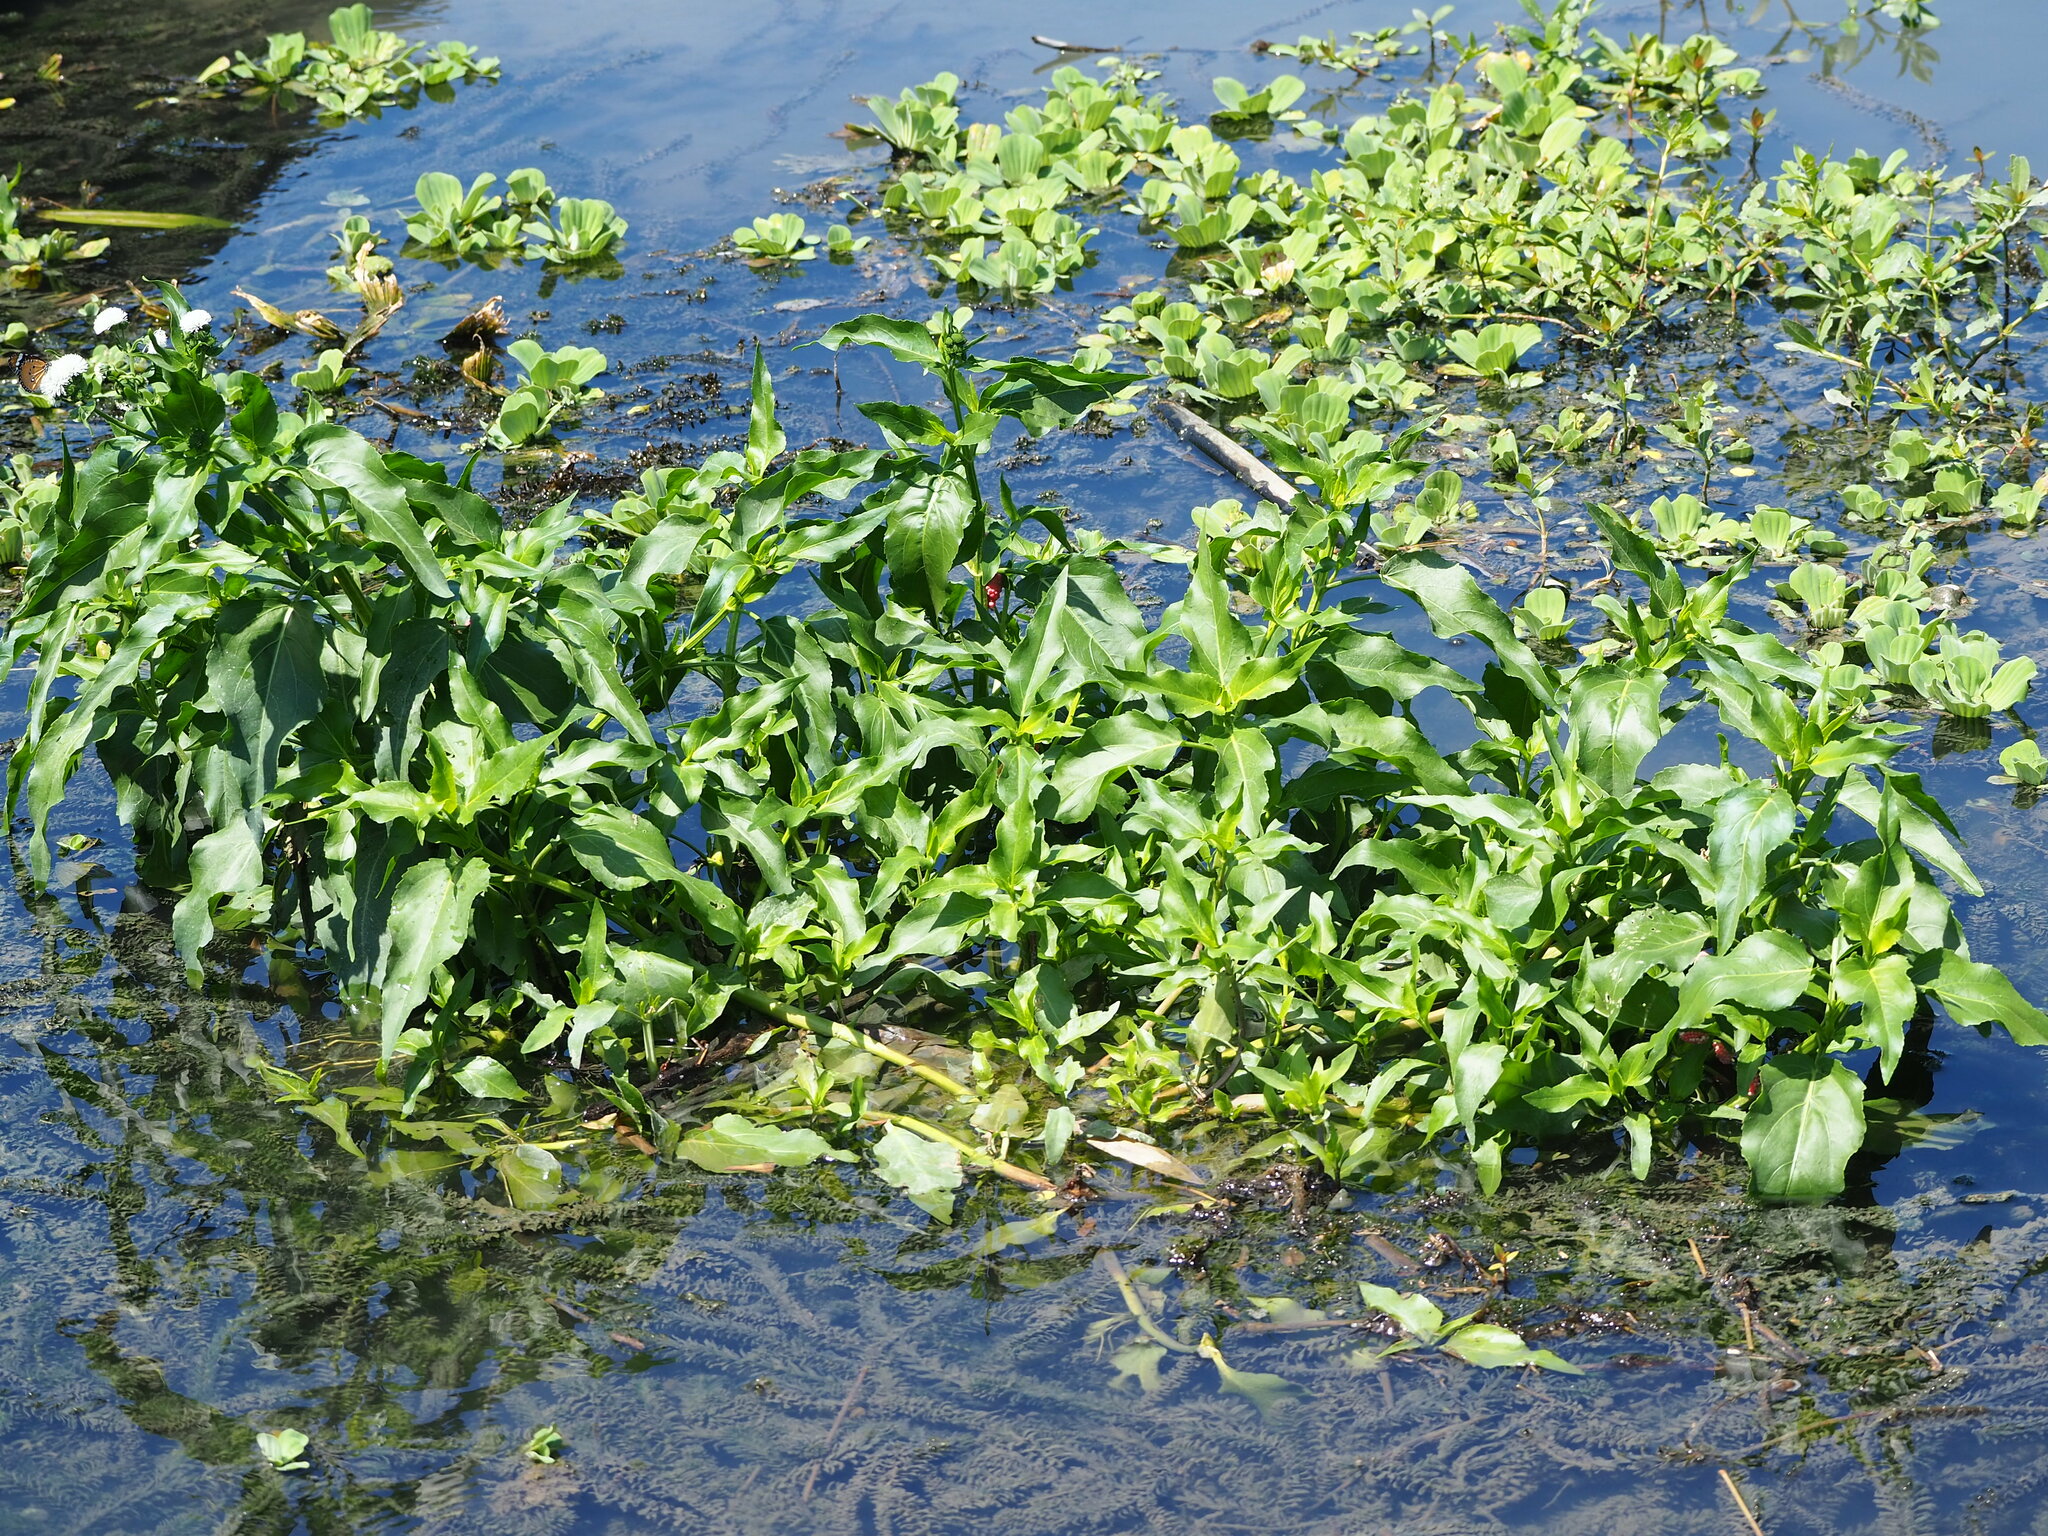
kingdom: Plantae
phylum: Tracheophyta
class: Magnoliopsida
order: Asterales
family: Asteraceae
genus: Gymnocoronis
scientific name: Gymnocoronis spilanthoides
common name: Senegal teaplant
